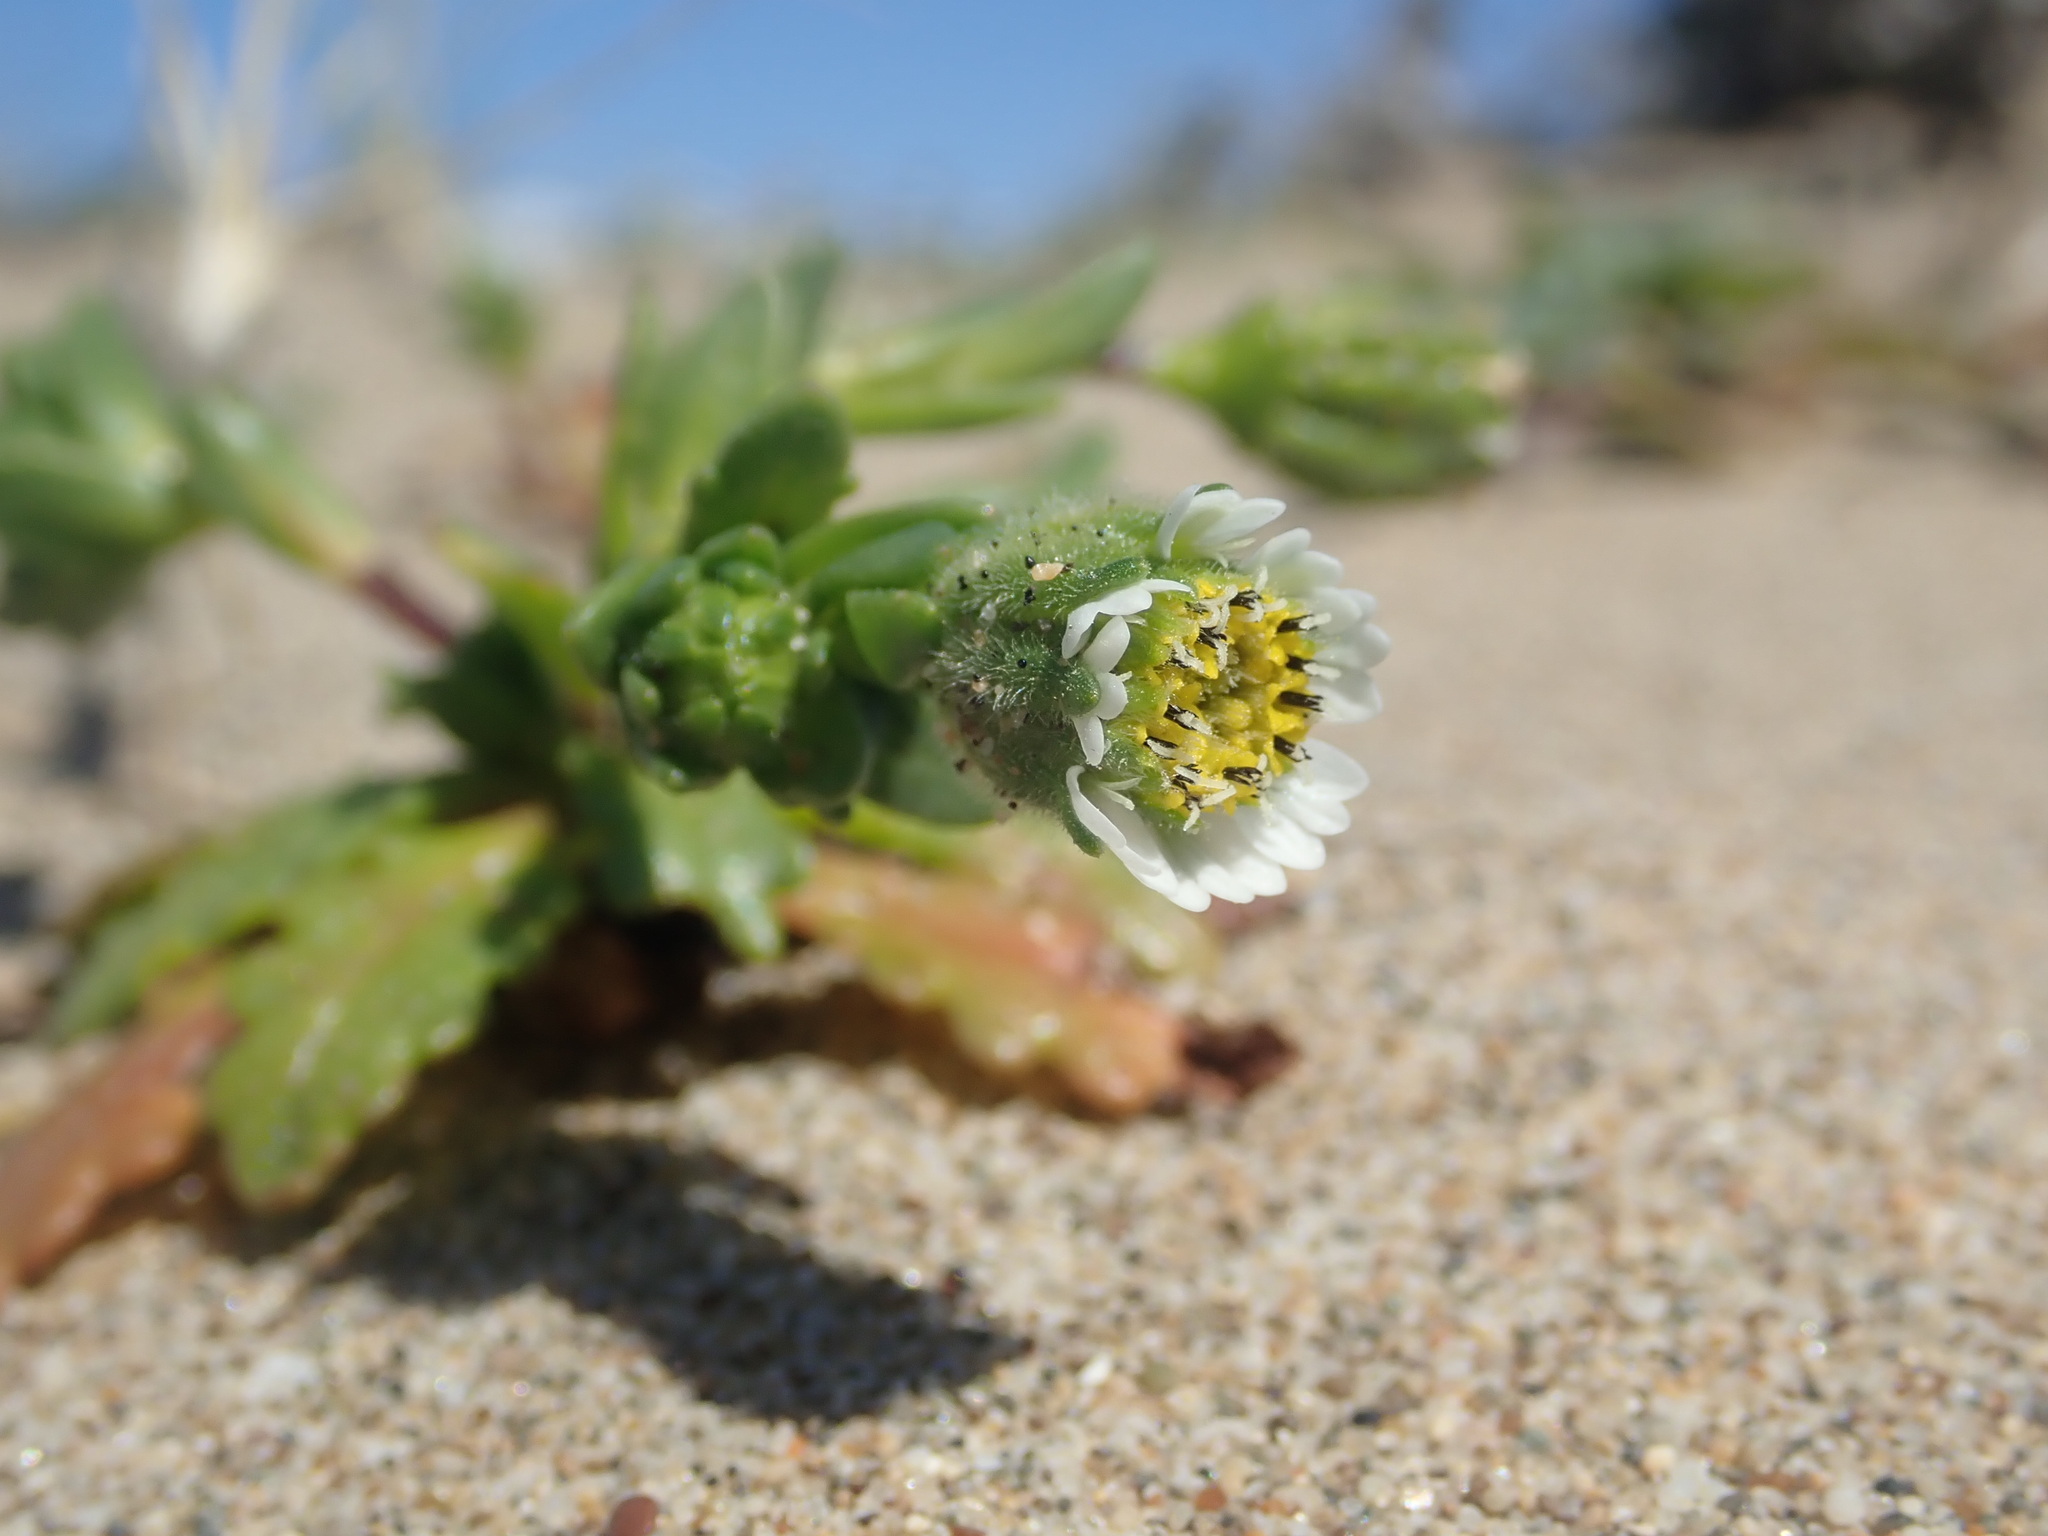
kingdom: Plantae
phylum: Tracheophyta
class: Magnoliopsida
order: Asterales
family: Asteraceae
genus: Layia
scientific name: Layia carnosa
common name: Beach layia
